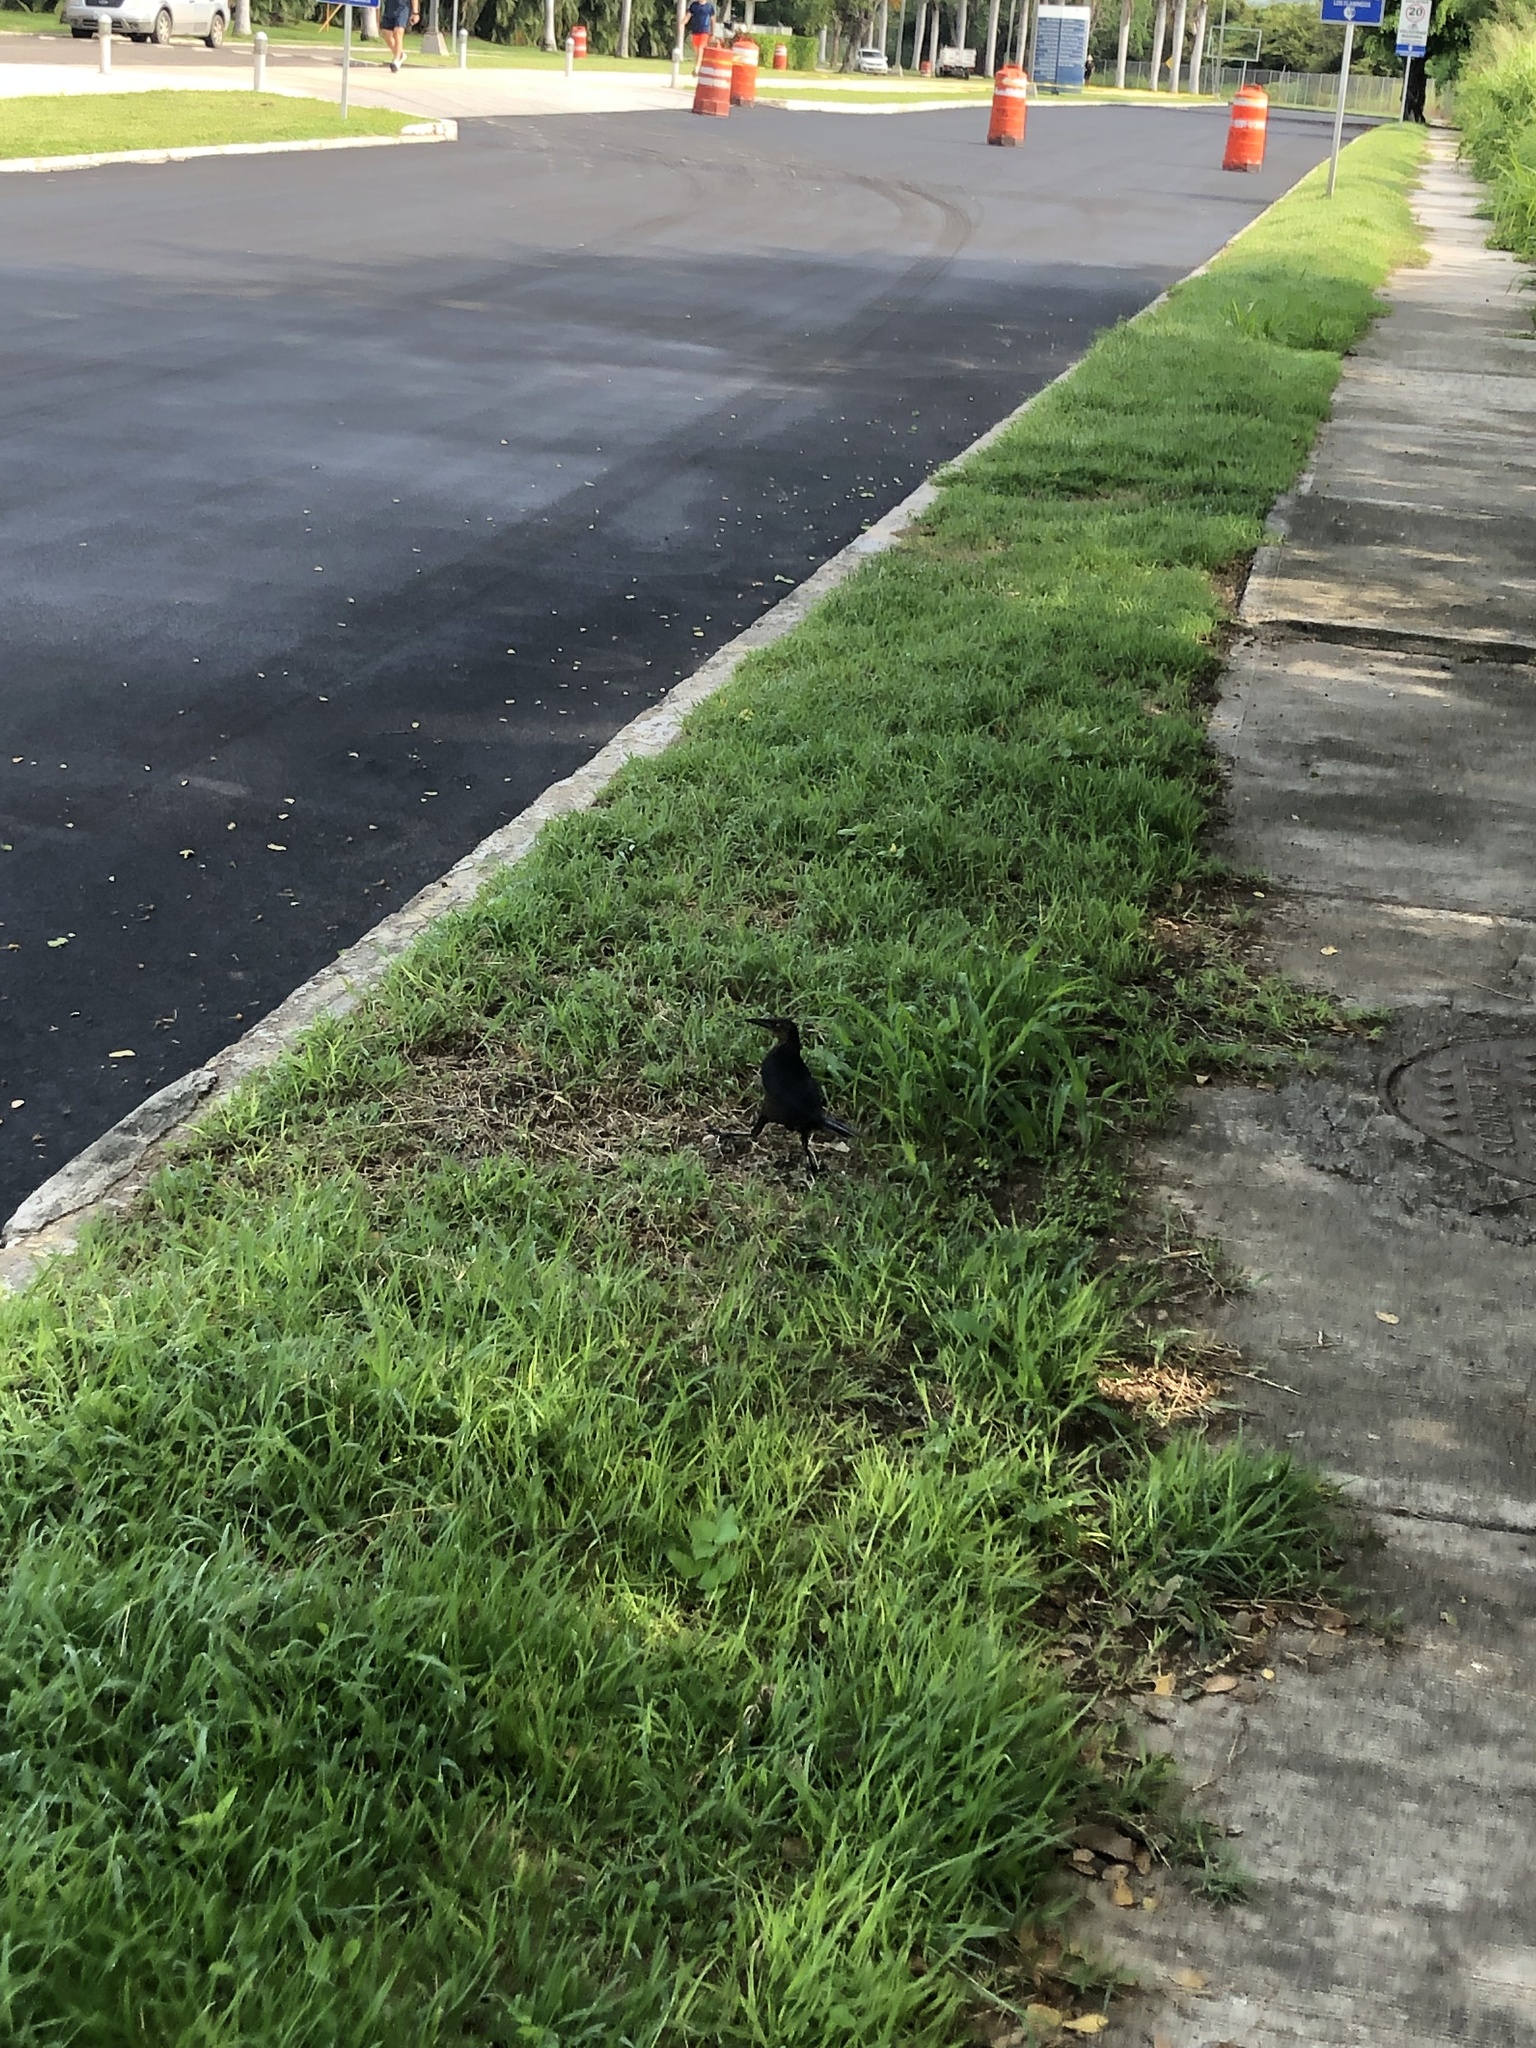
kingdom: Animalia
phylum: Chordata
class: Aves
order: Passeriformes
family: Icteridae
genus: Quiscalus
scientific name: Quiscalus mexicanus
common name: Great-tailed grackle
